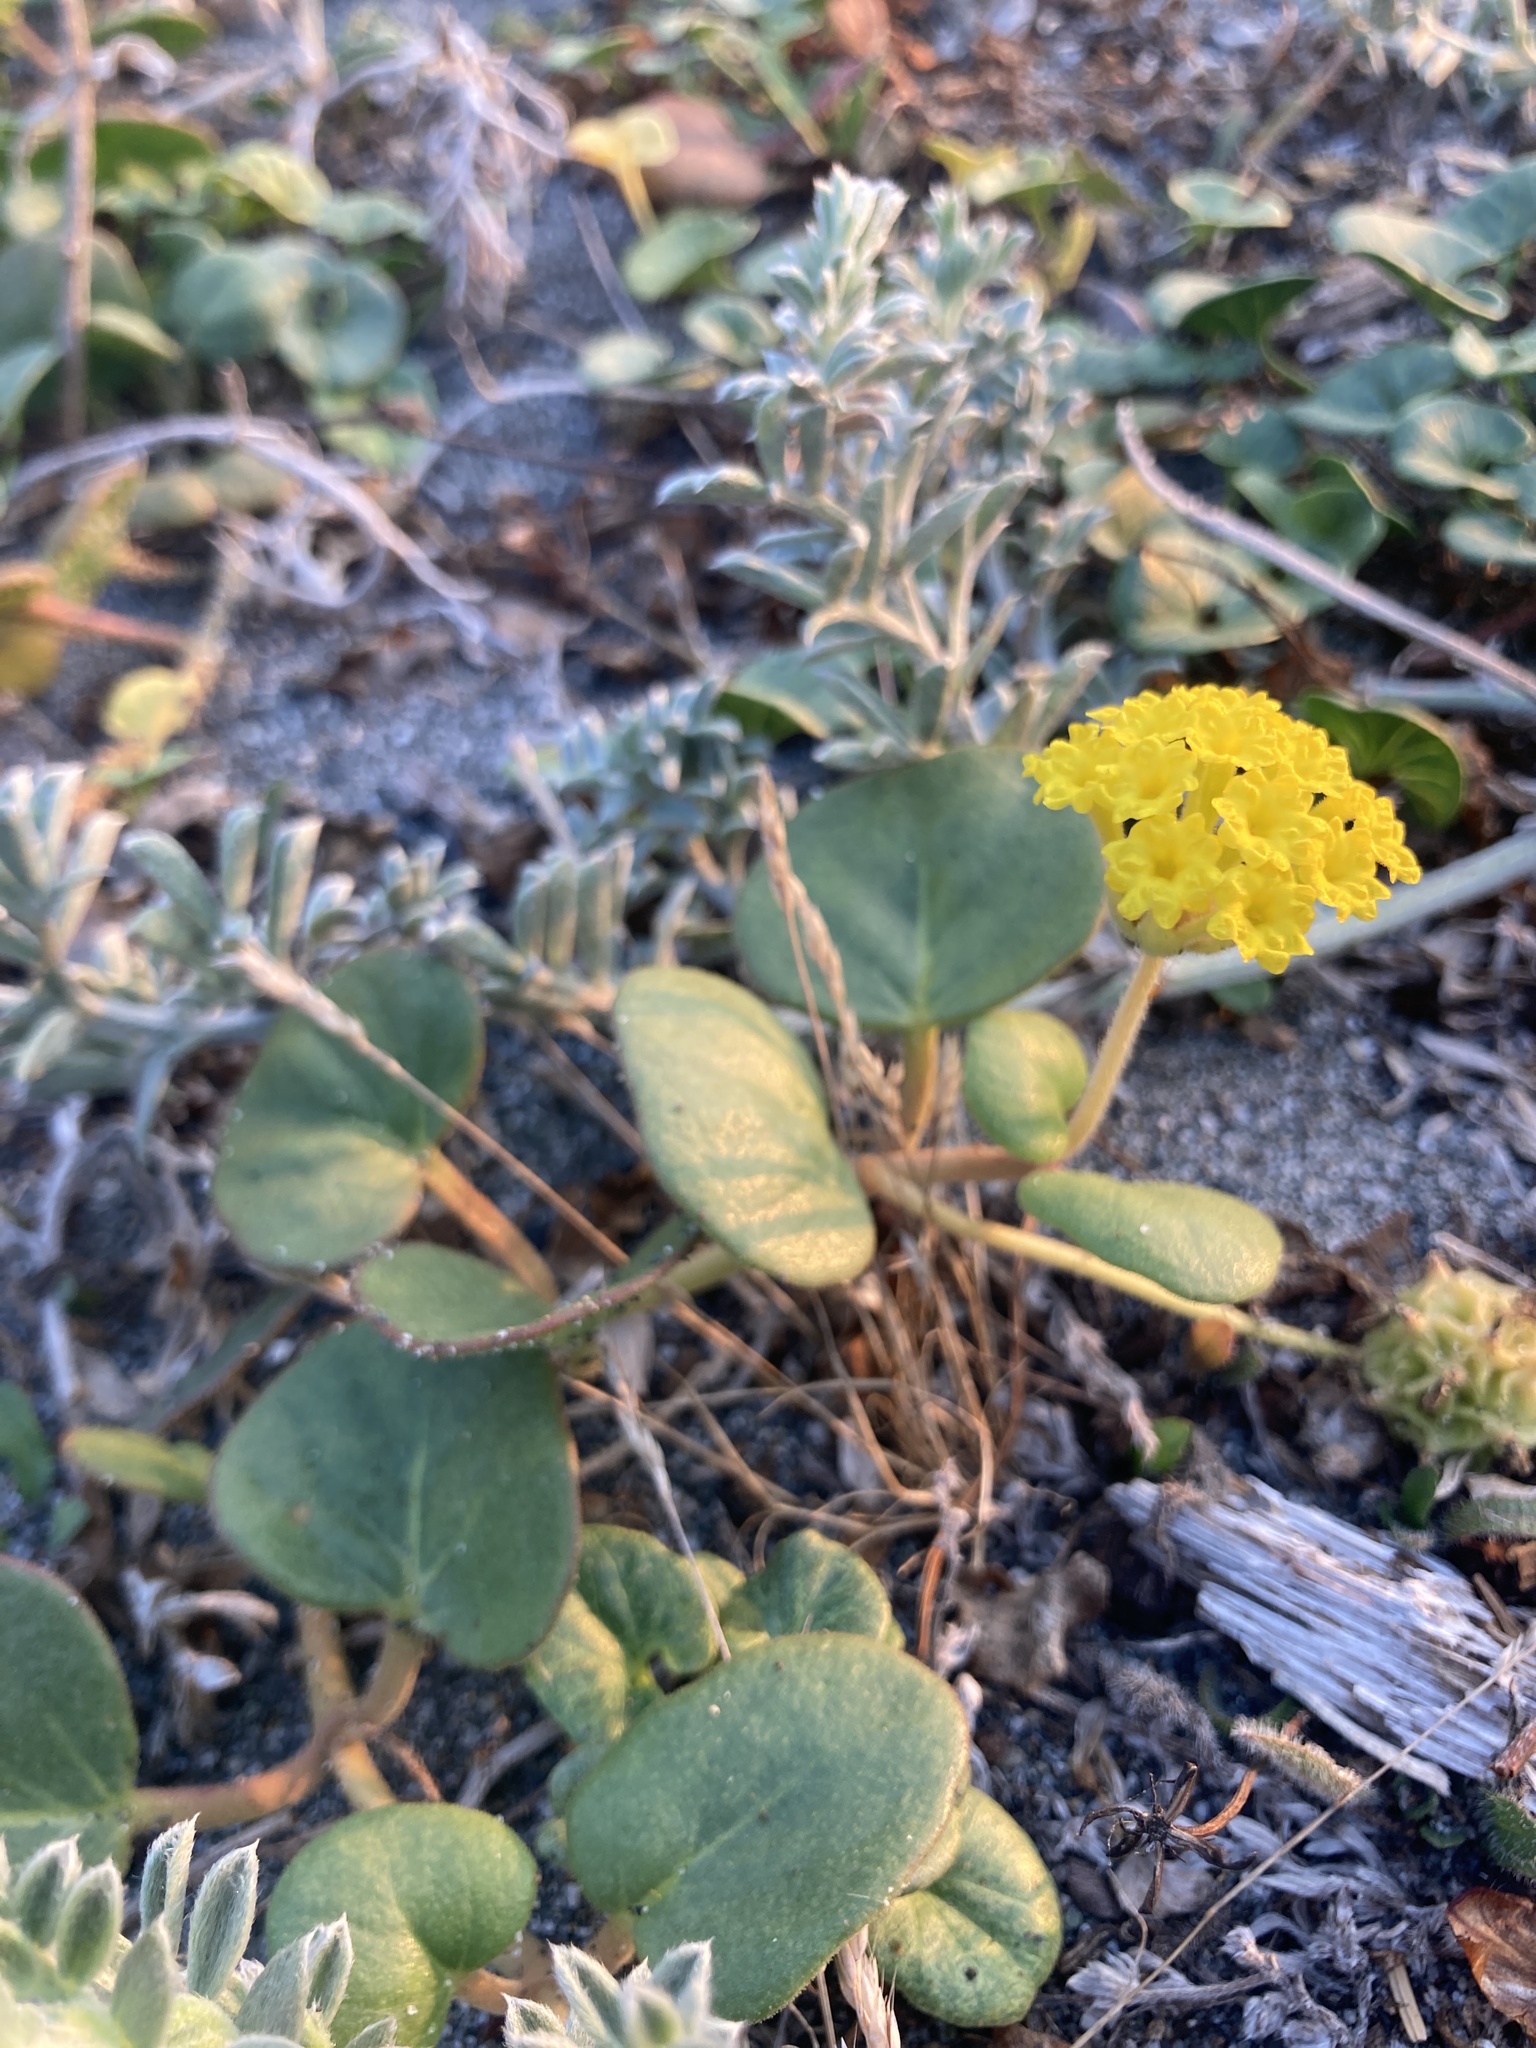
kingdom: Plantae
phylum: Tracheophyta
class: Magnoliopsida
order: Caryophyllales
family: Nyctaginaceae
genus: Abronia
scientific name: Abronia latifolia
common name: Yellow sand-verbena
